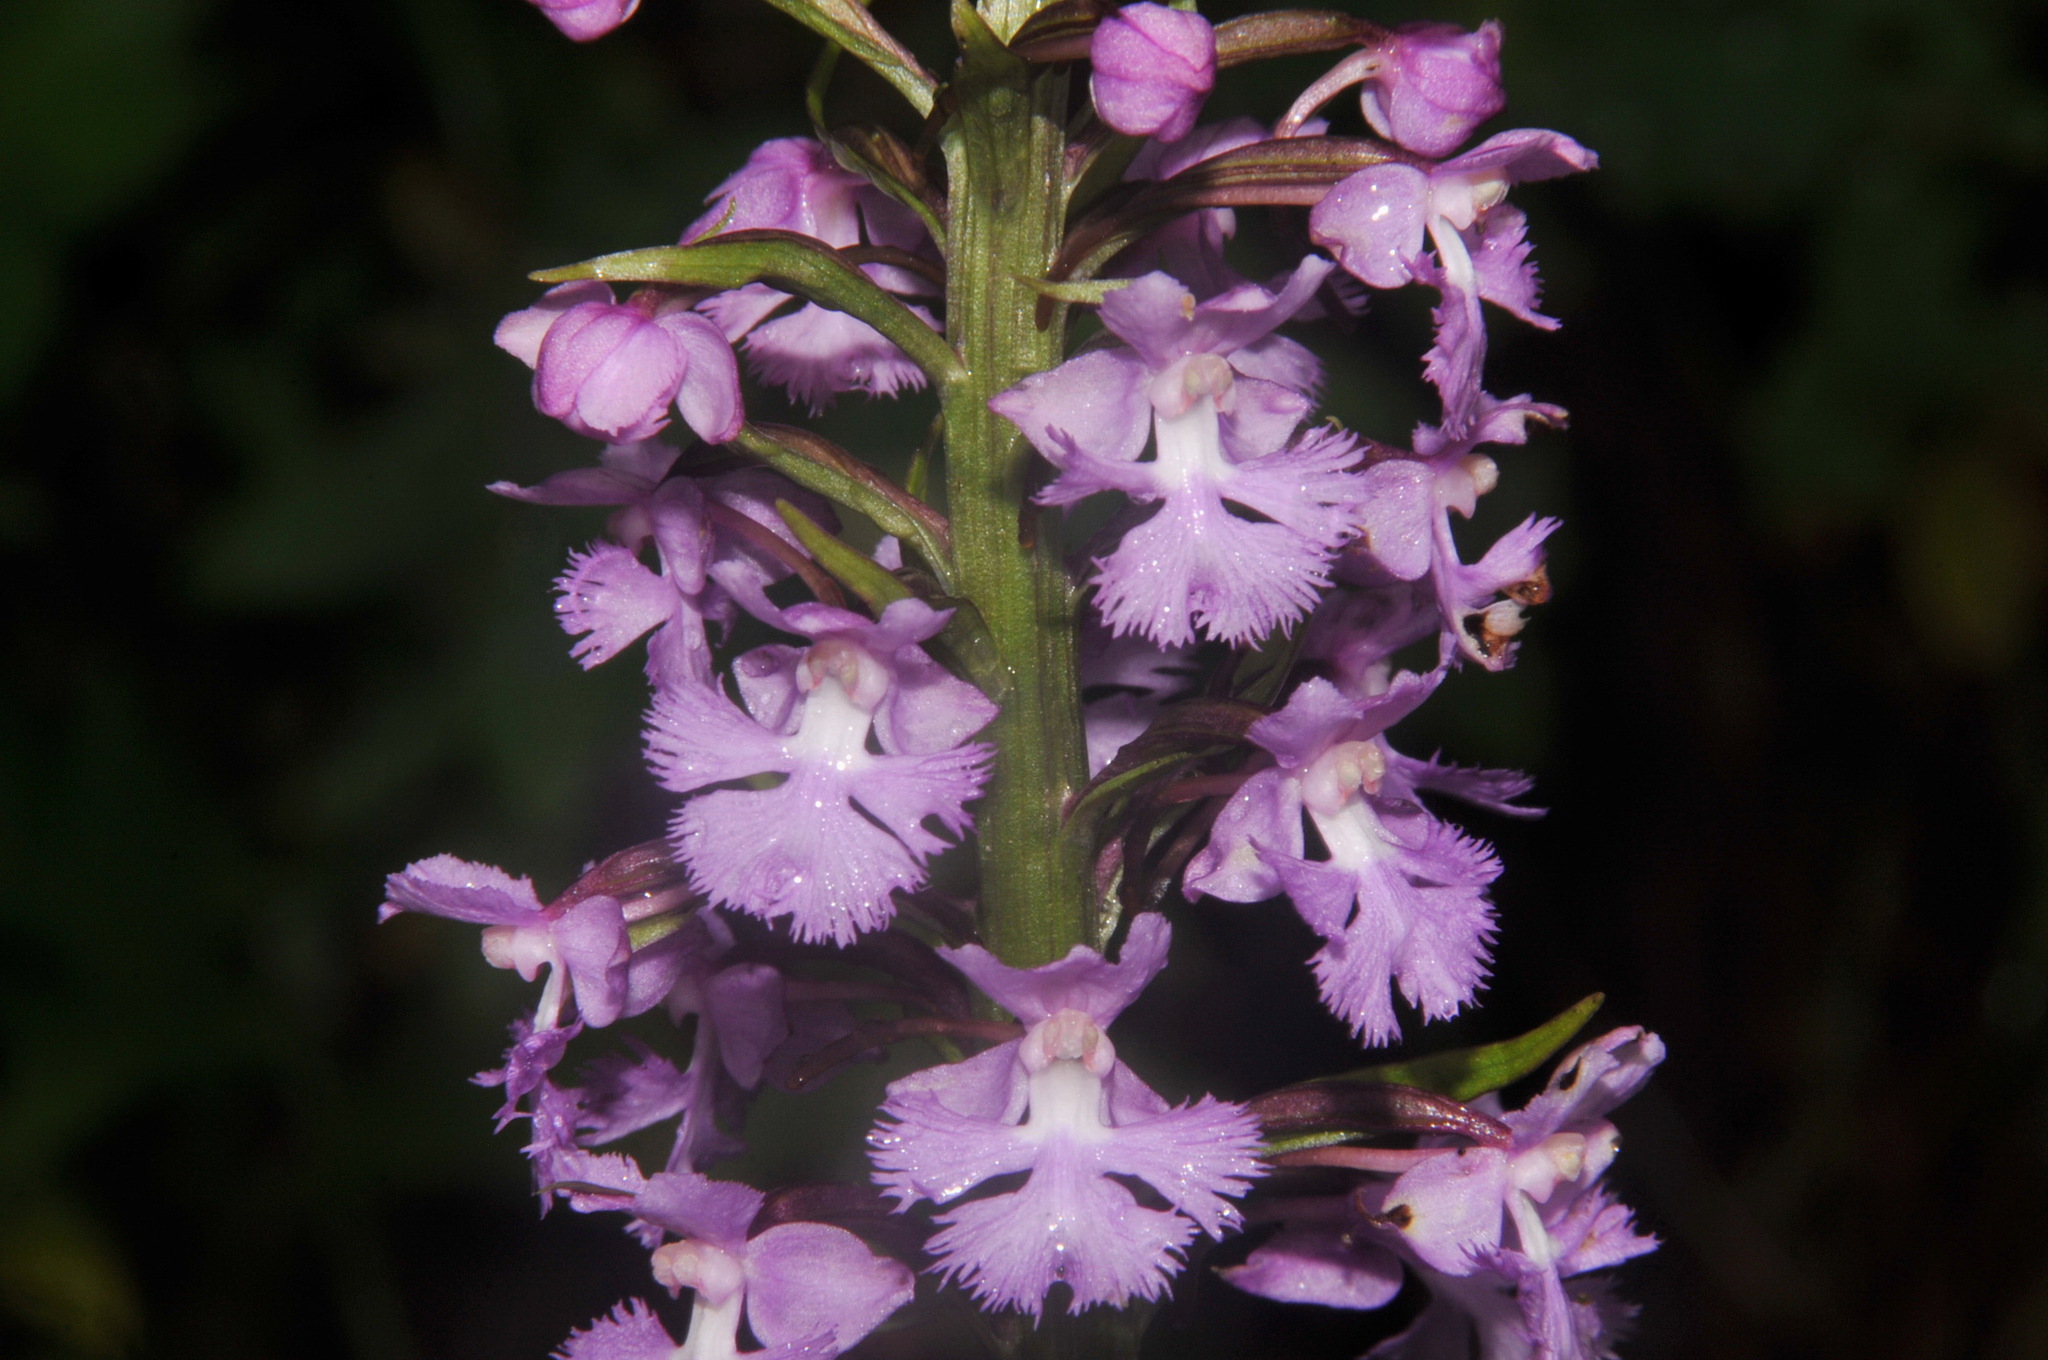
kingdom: Plantae
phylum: Tracheophyta
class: Liliopsida
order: Asparagales
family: Orchidaceae
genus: Platanthera
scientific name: Platanthera psycodes
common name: Lesser purple fringed orchid
